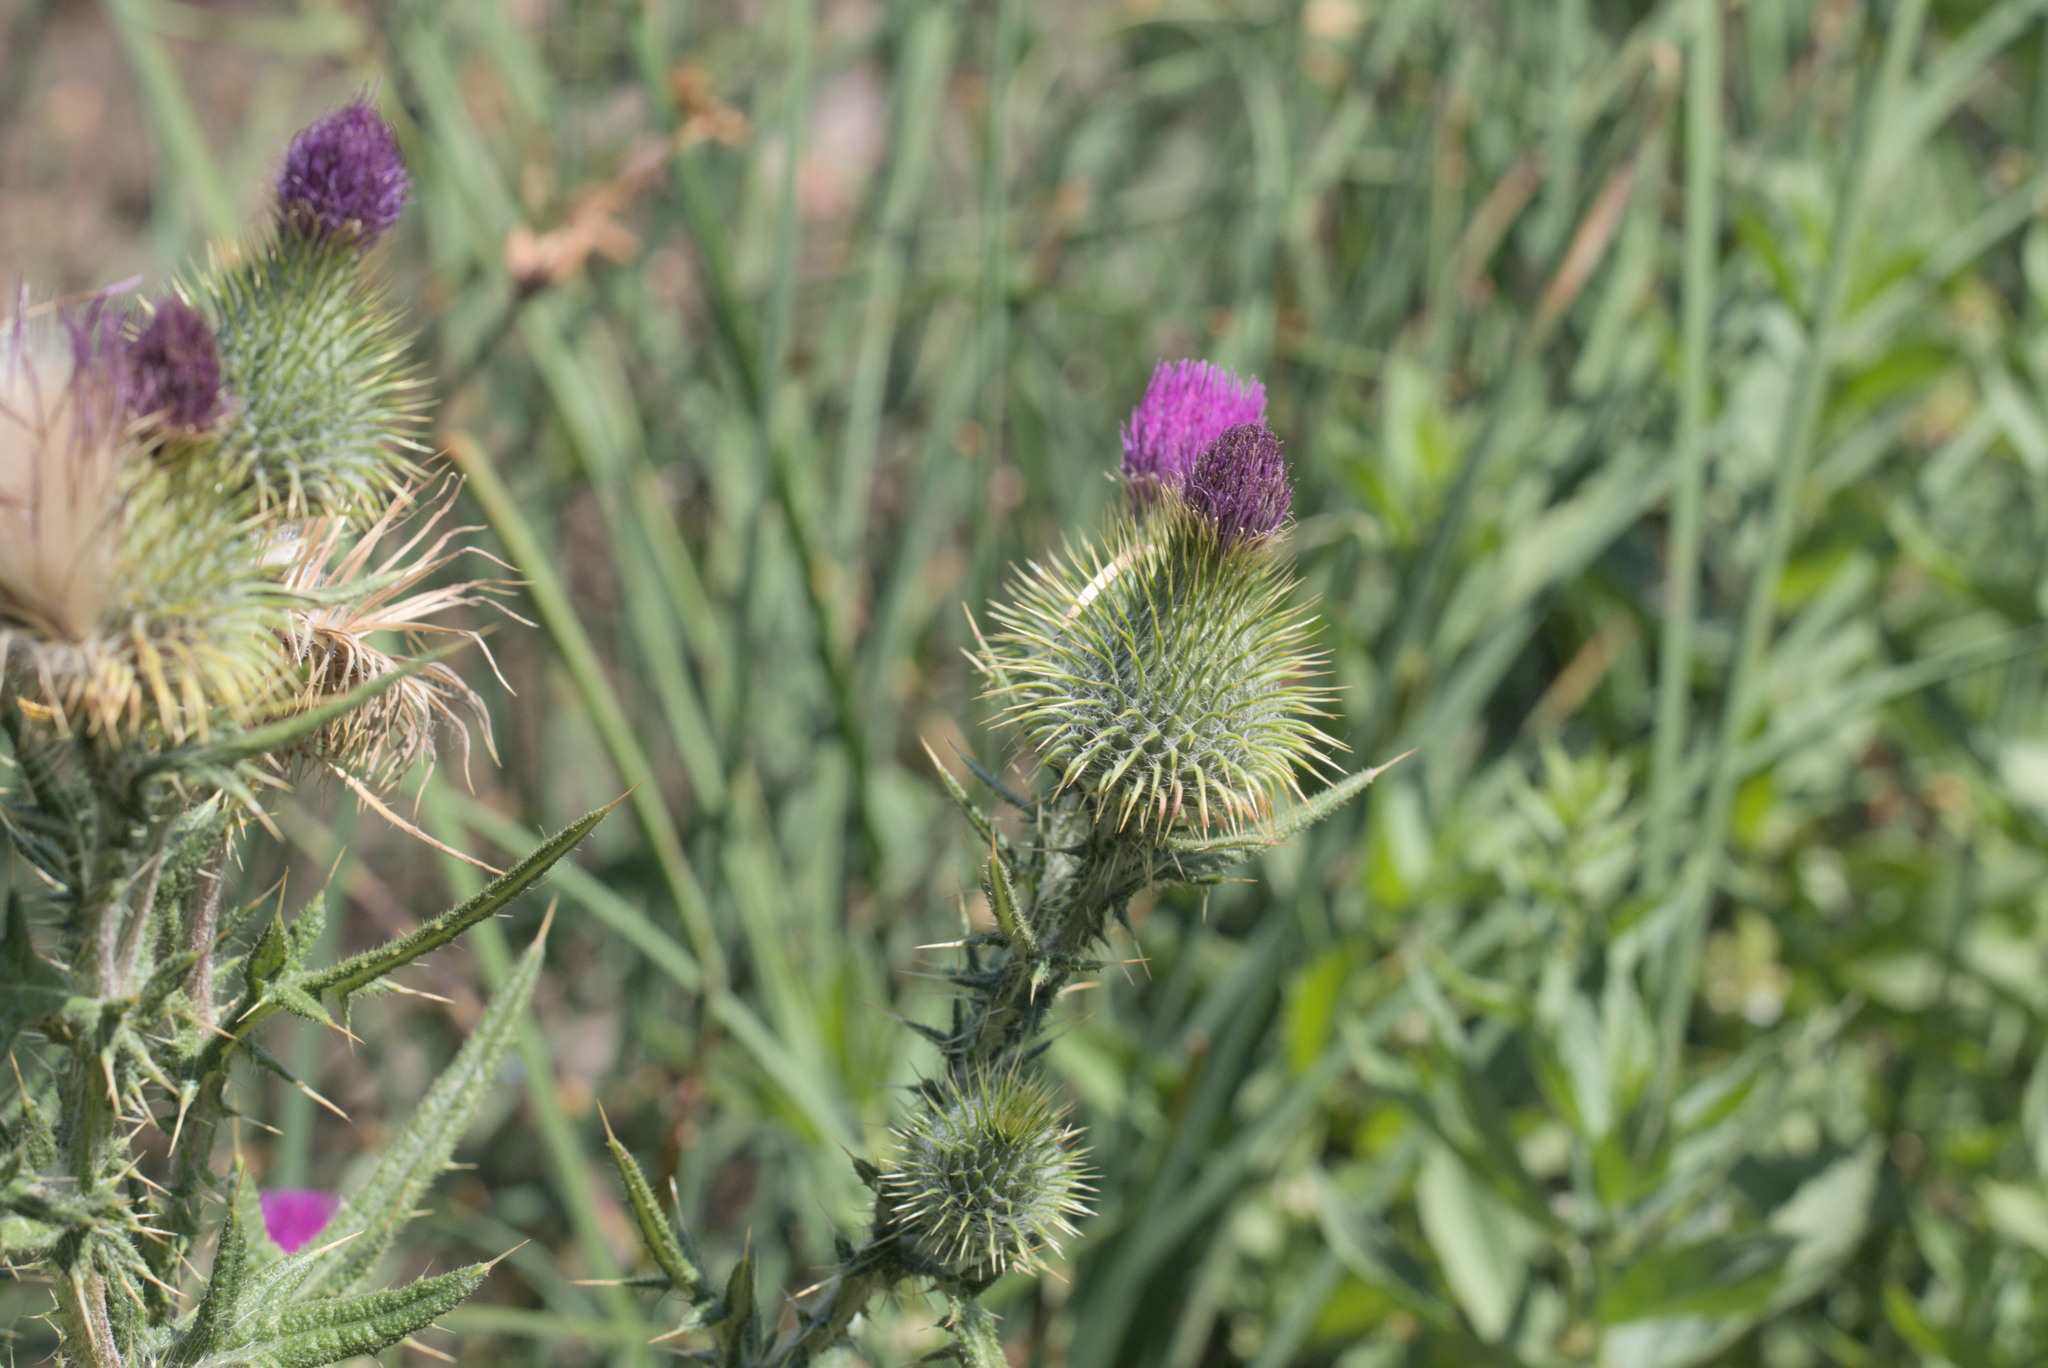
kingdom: Plantae
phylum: Tracheophyta
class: Magnoliopsida
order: Asterales
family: Asteraceae
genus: Cirsium
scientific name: Cirsium vulgare
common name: Bull thistle
